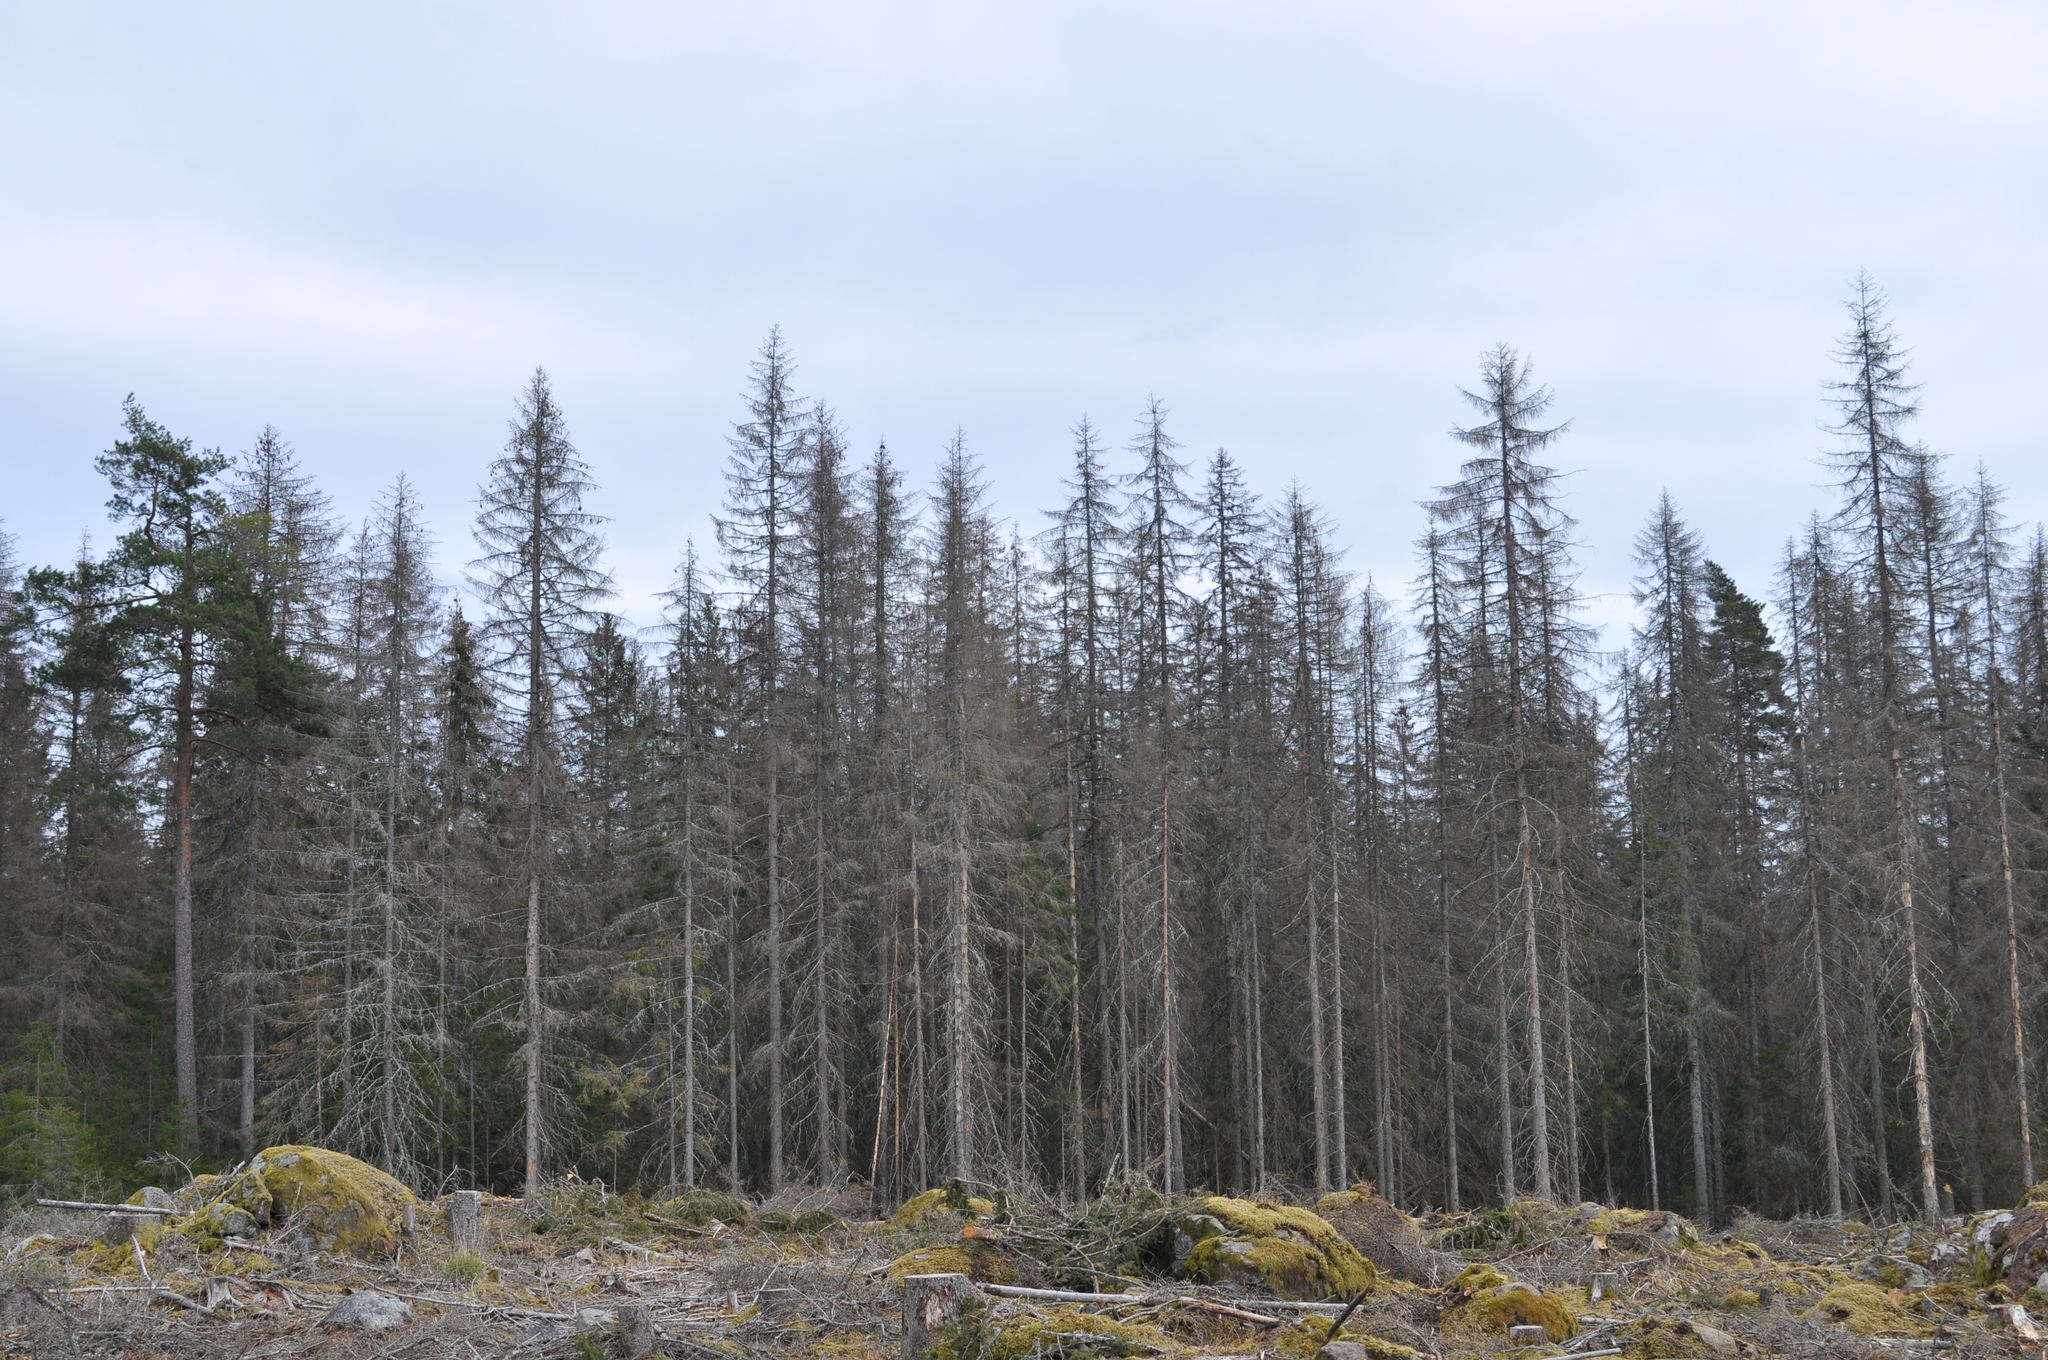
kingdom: Plantae
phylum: Tracheophyta
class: Pinopsida
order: Pinales
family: Pinaceae
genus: Picea
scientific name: Picea abies
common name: Norway spruce
